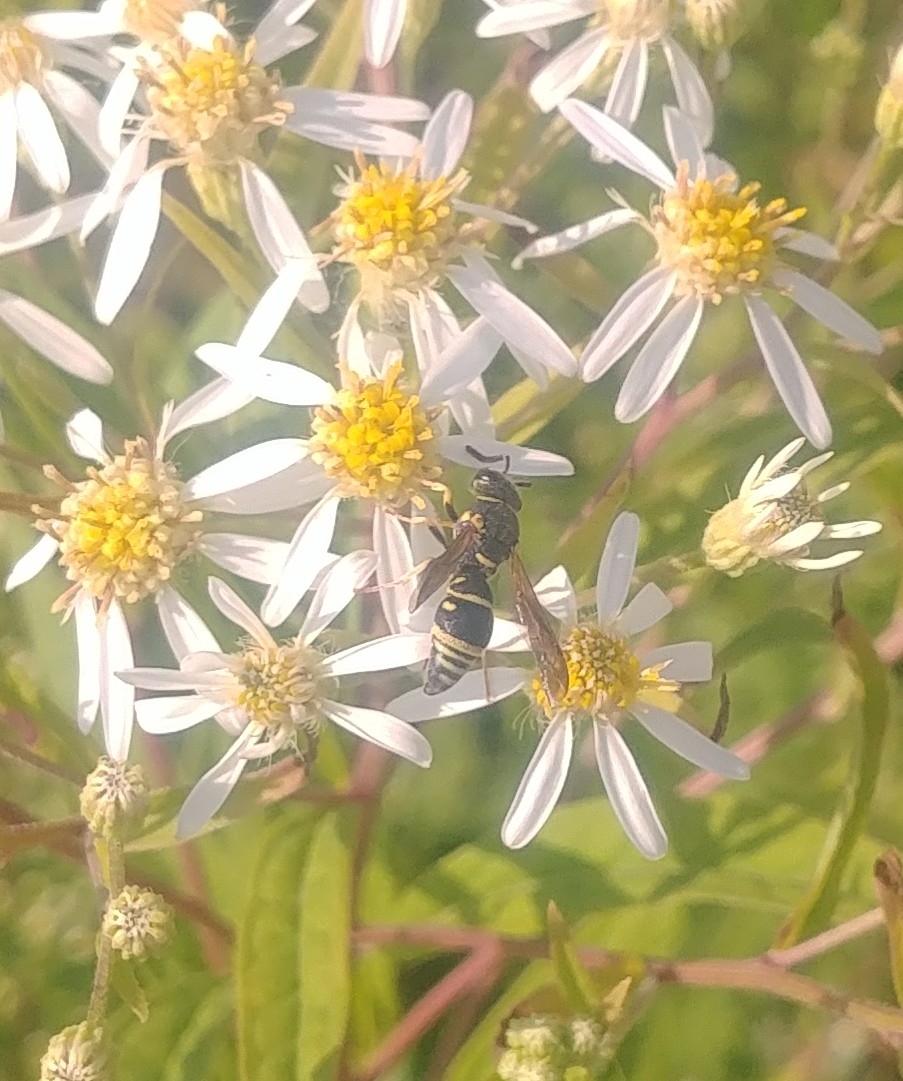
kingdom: Animalia
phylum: Arthropoda
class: Insecta
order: Hymenoptera
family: Eumenidae
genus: Parancistrocerus
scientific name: Parancistrocerus leionotus
